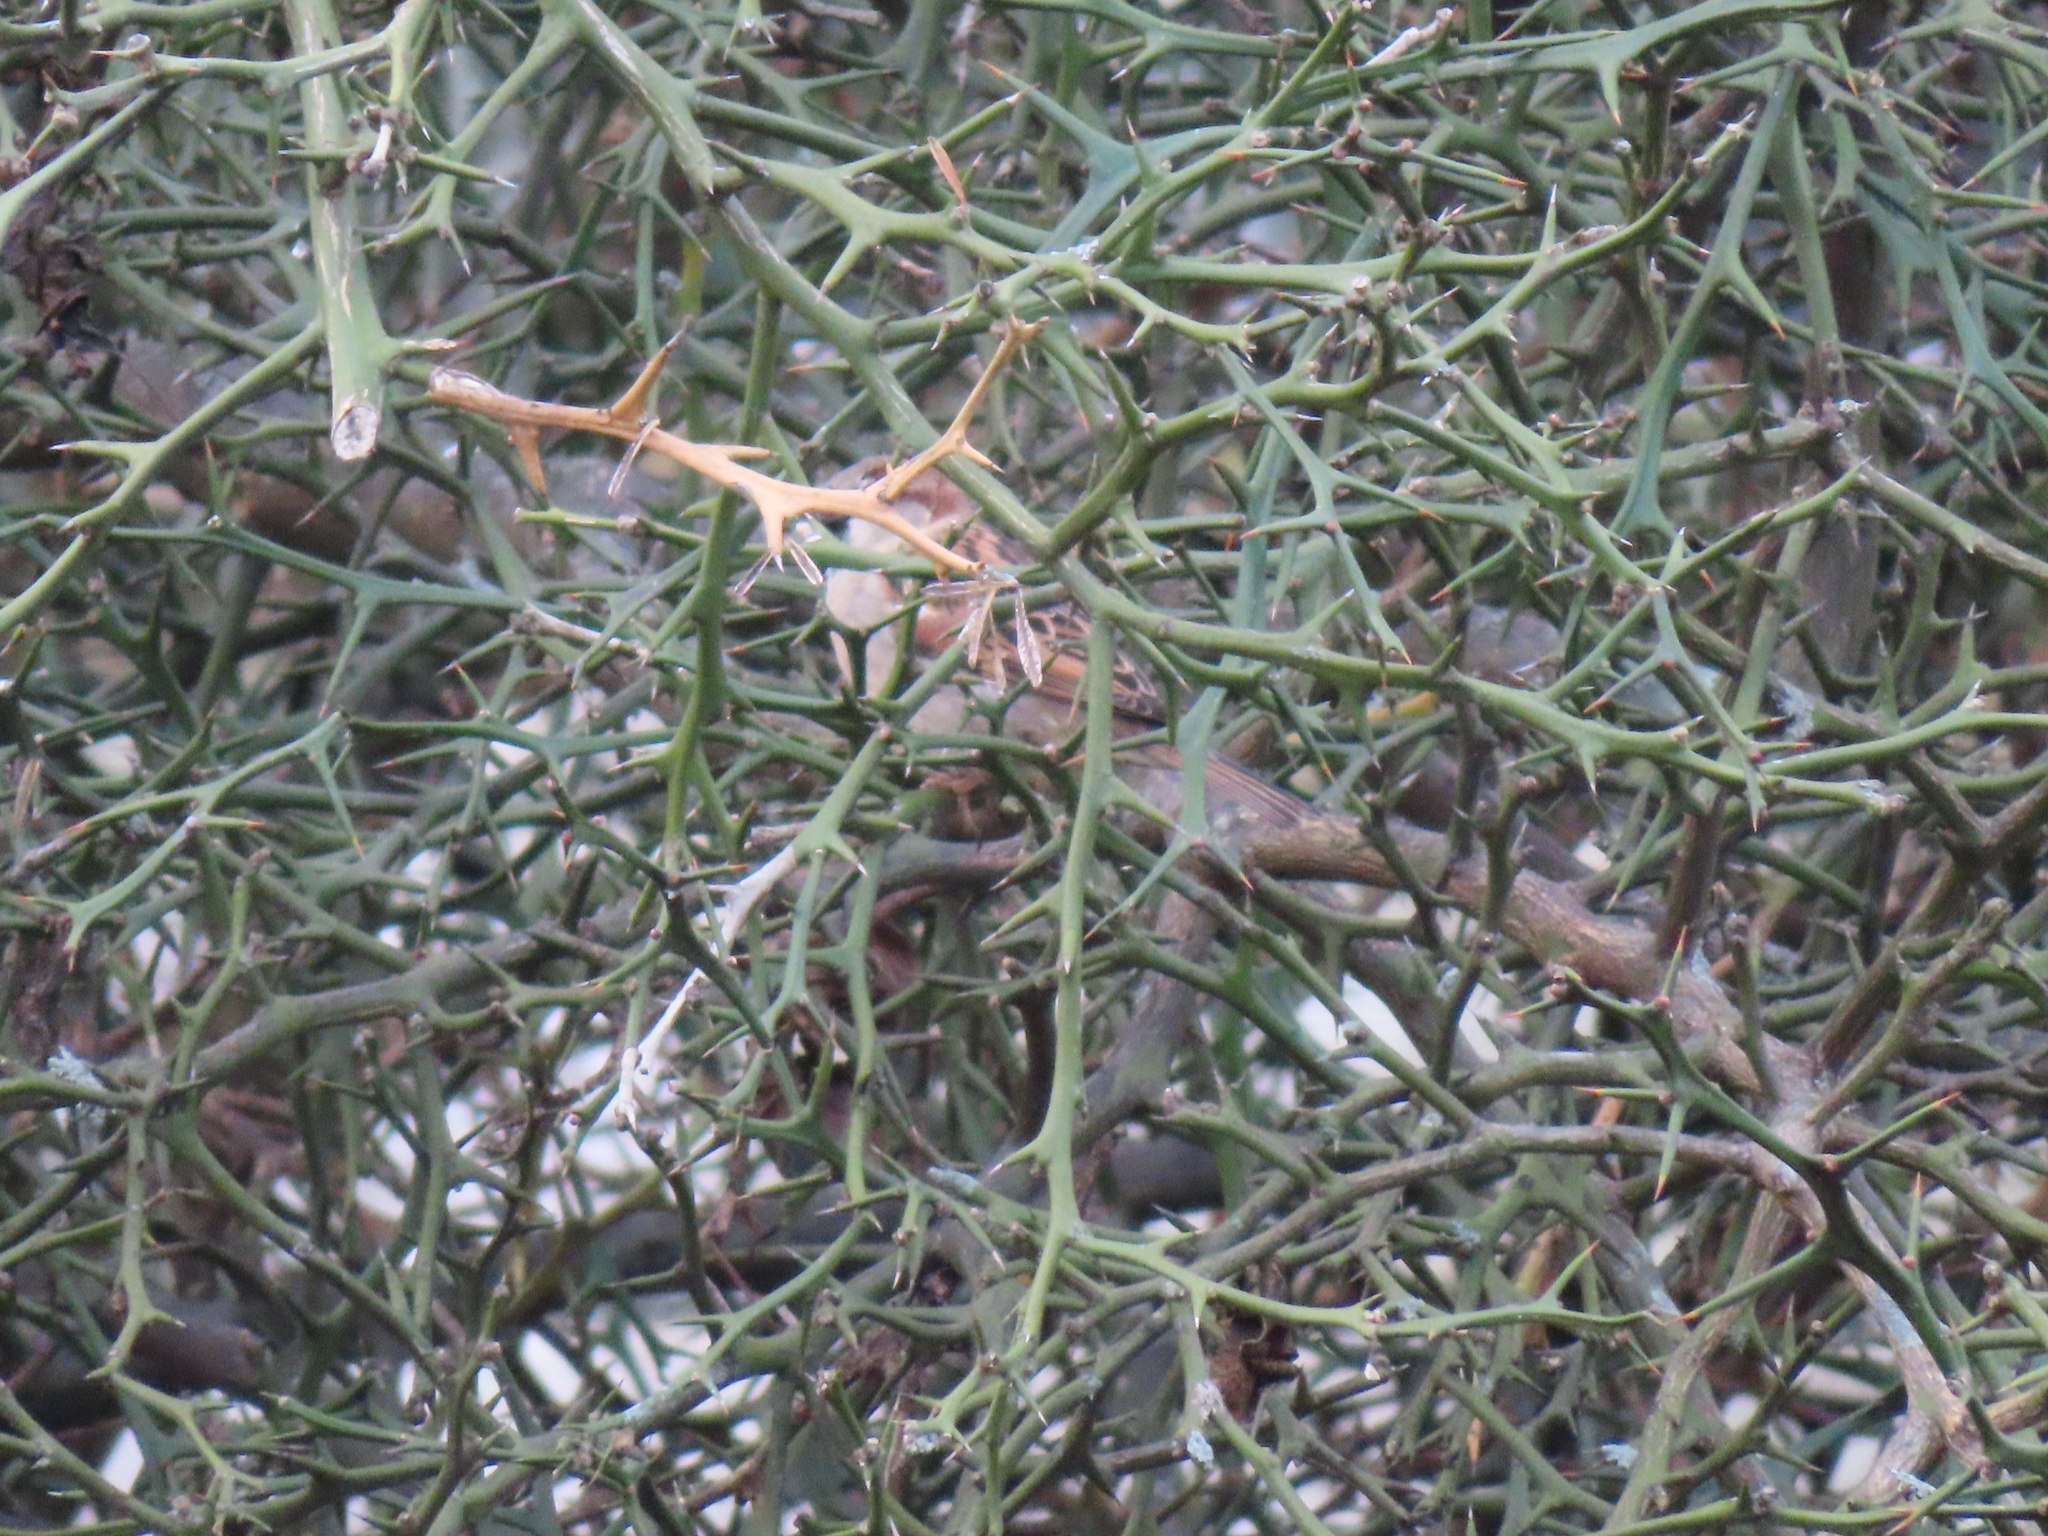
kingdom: Animalia
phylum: Chordata
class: Aves
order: Passeriformes
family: Passeridae
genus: Passer
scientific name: Passer domesticus
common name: House sparrow
